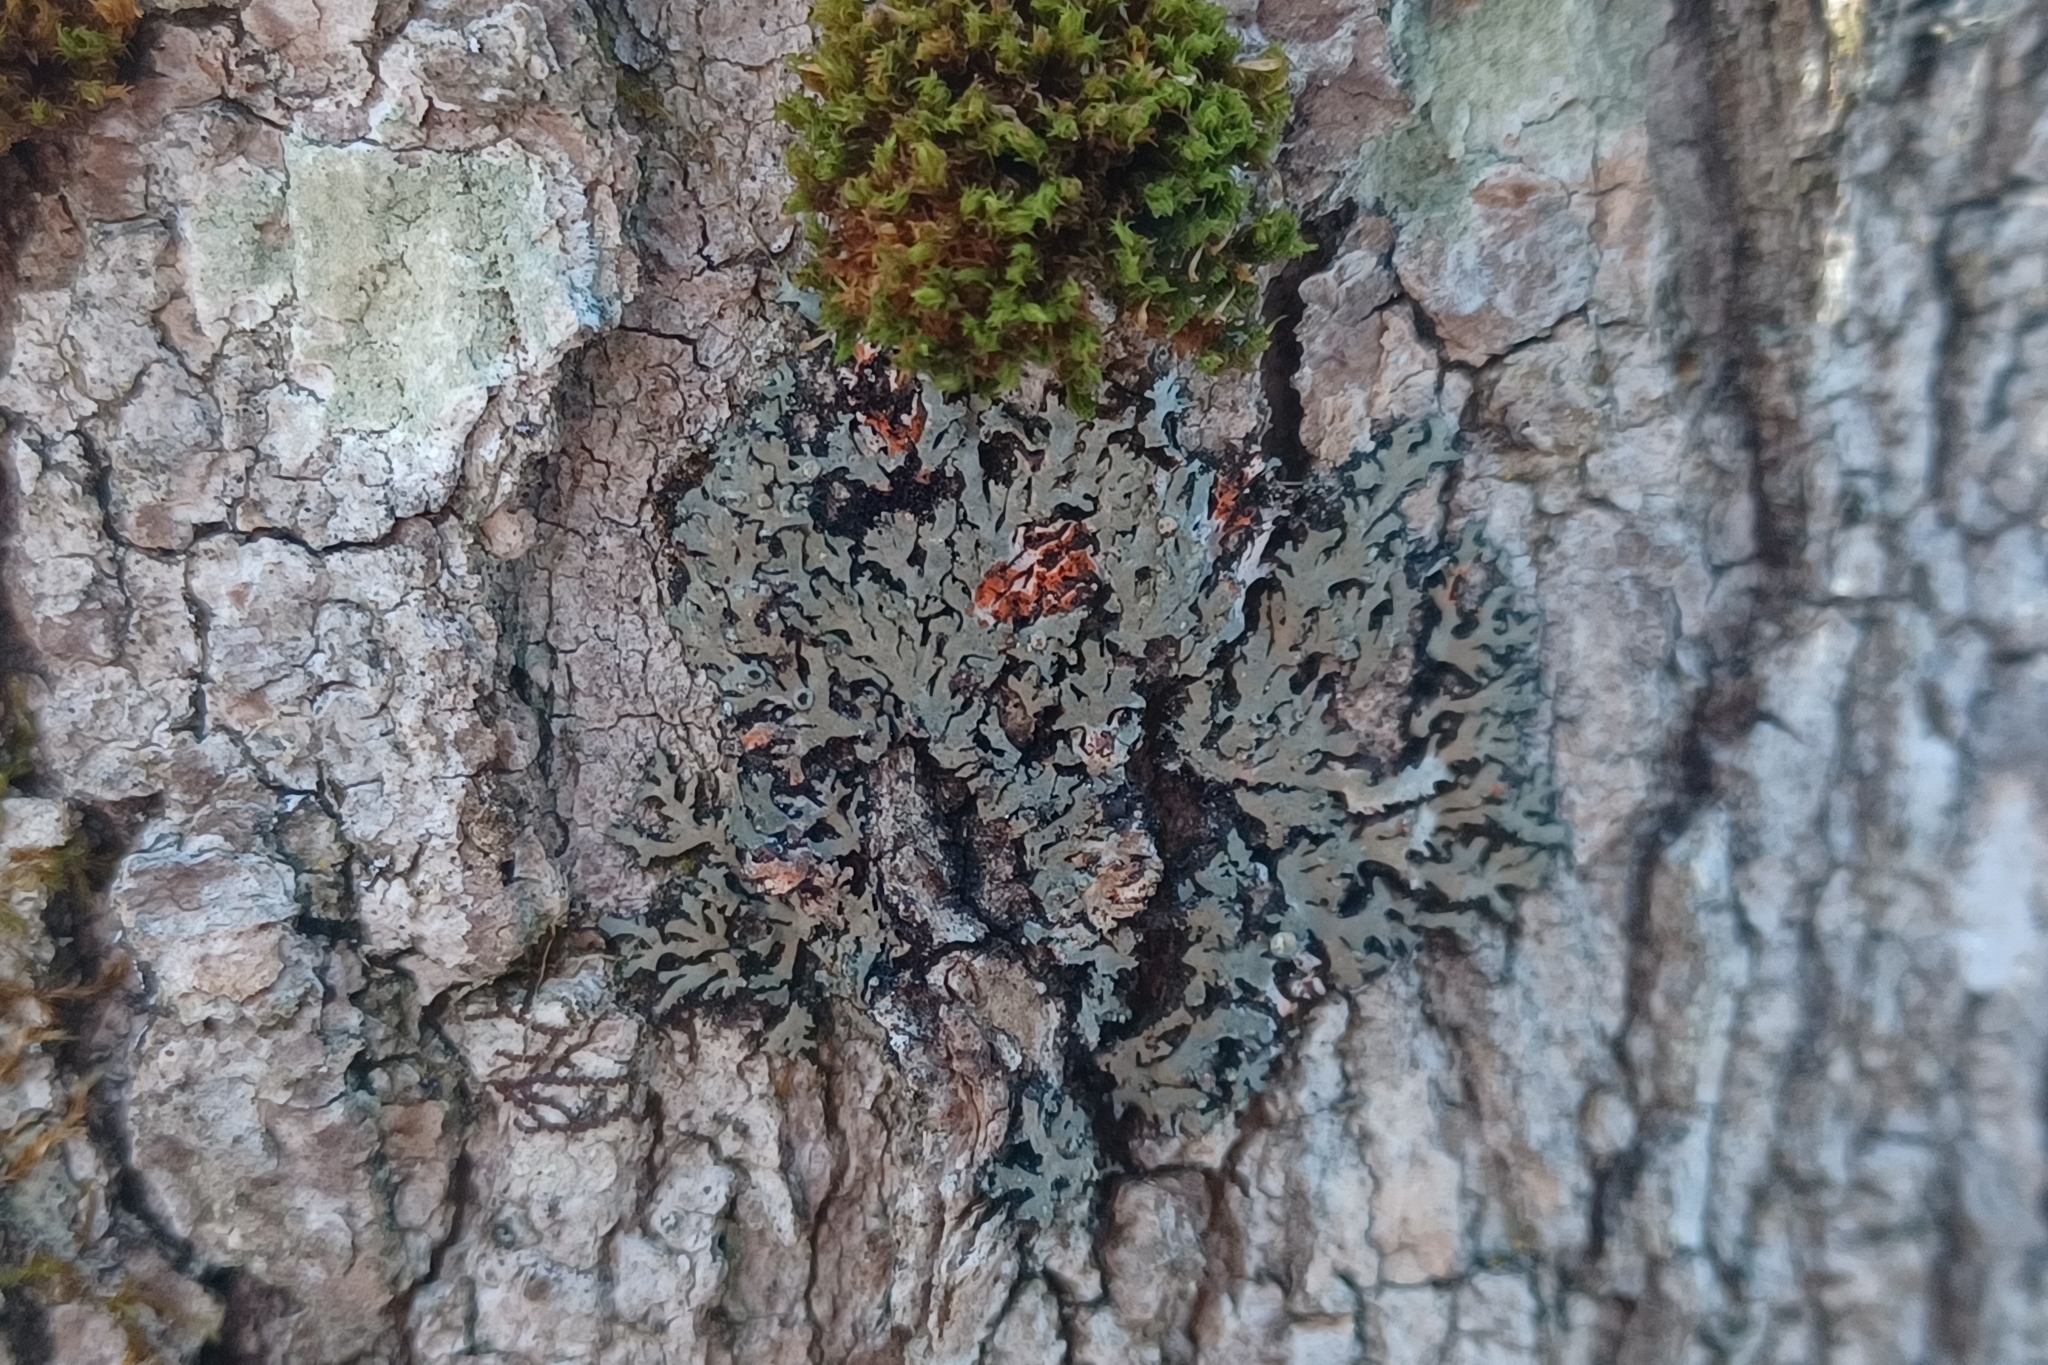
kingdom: Fungi
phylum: Ascomycota
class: Lecanoromycetes
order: Caliciales
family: Physciaceae
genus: Phaeophyscia
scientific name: Phaeophyscia rubropulchra
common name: Orange-cored shadow lichen
